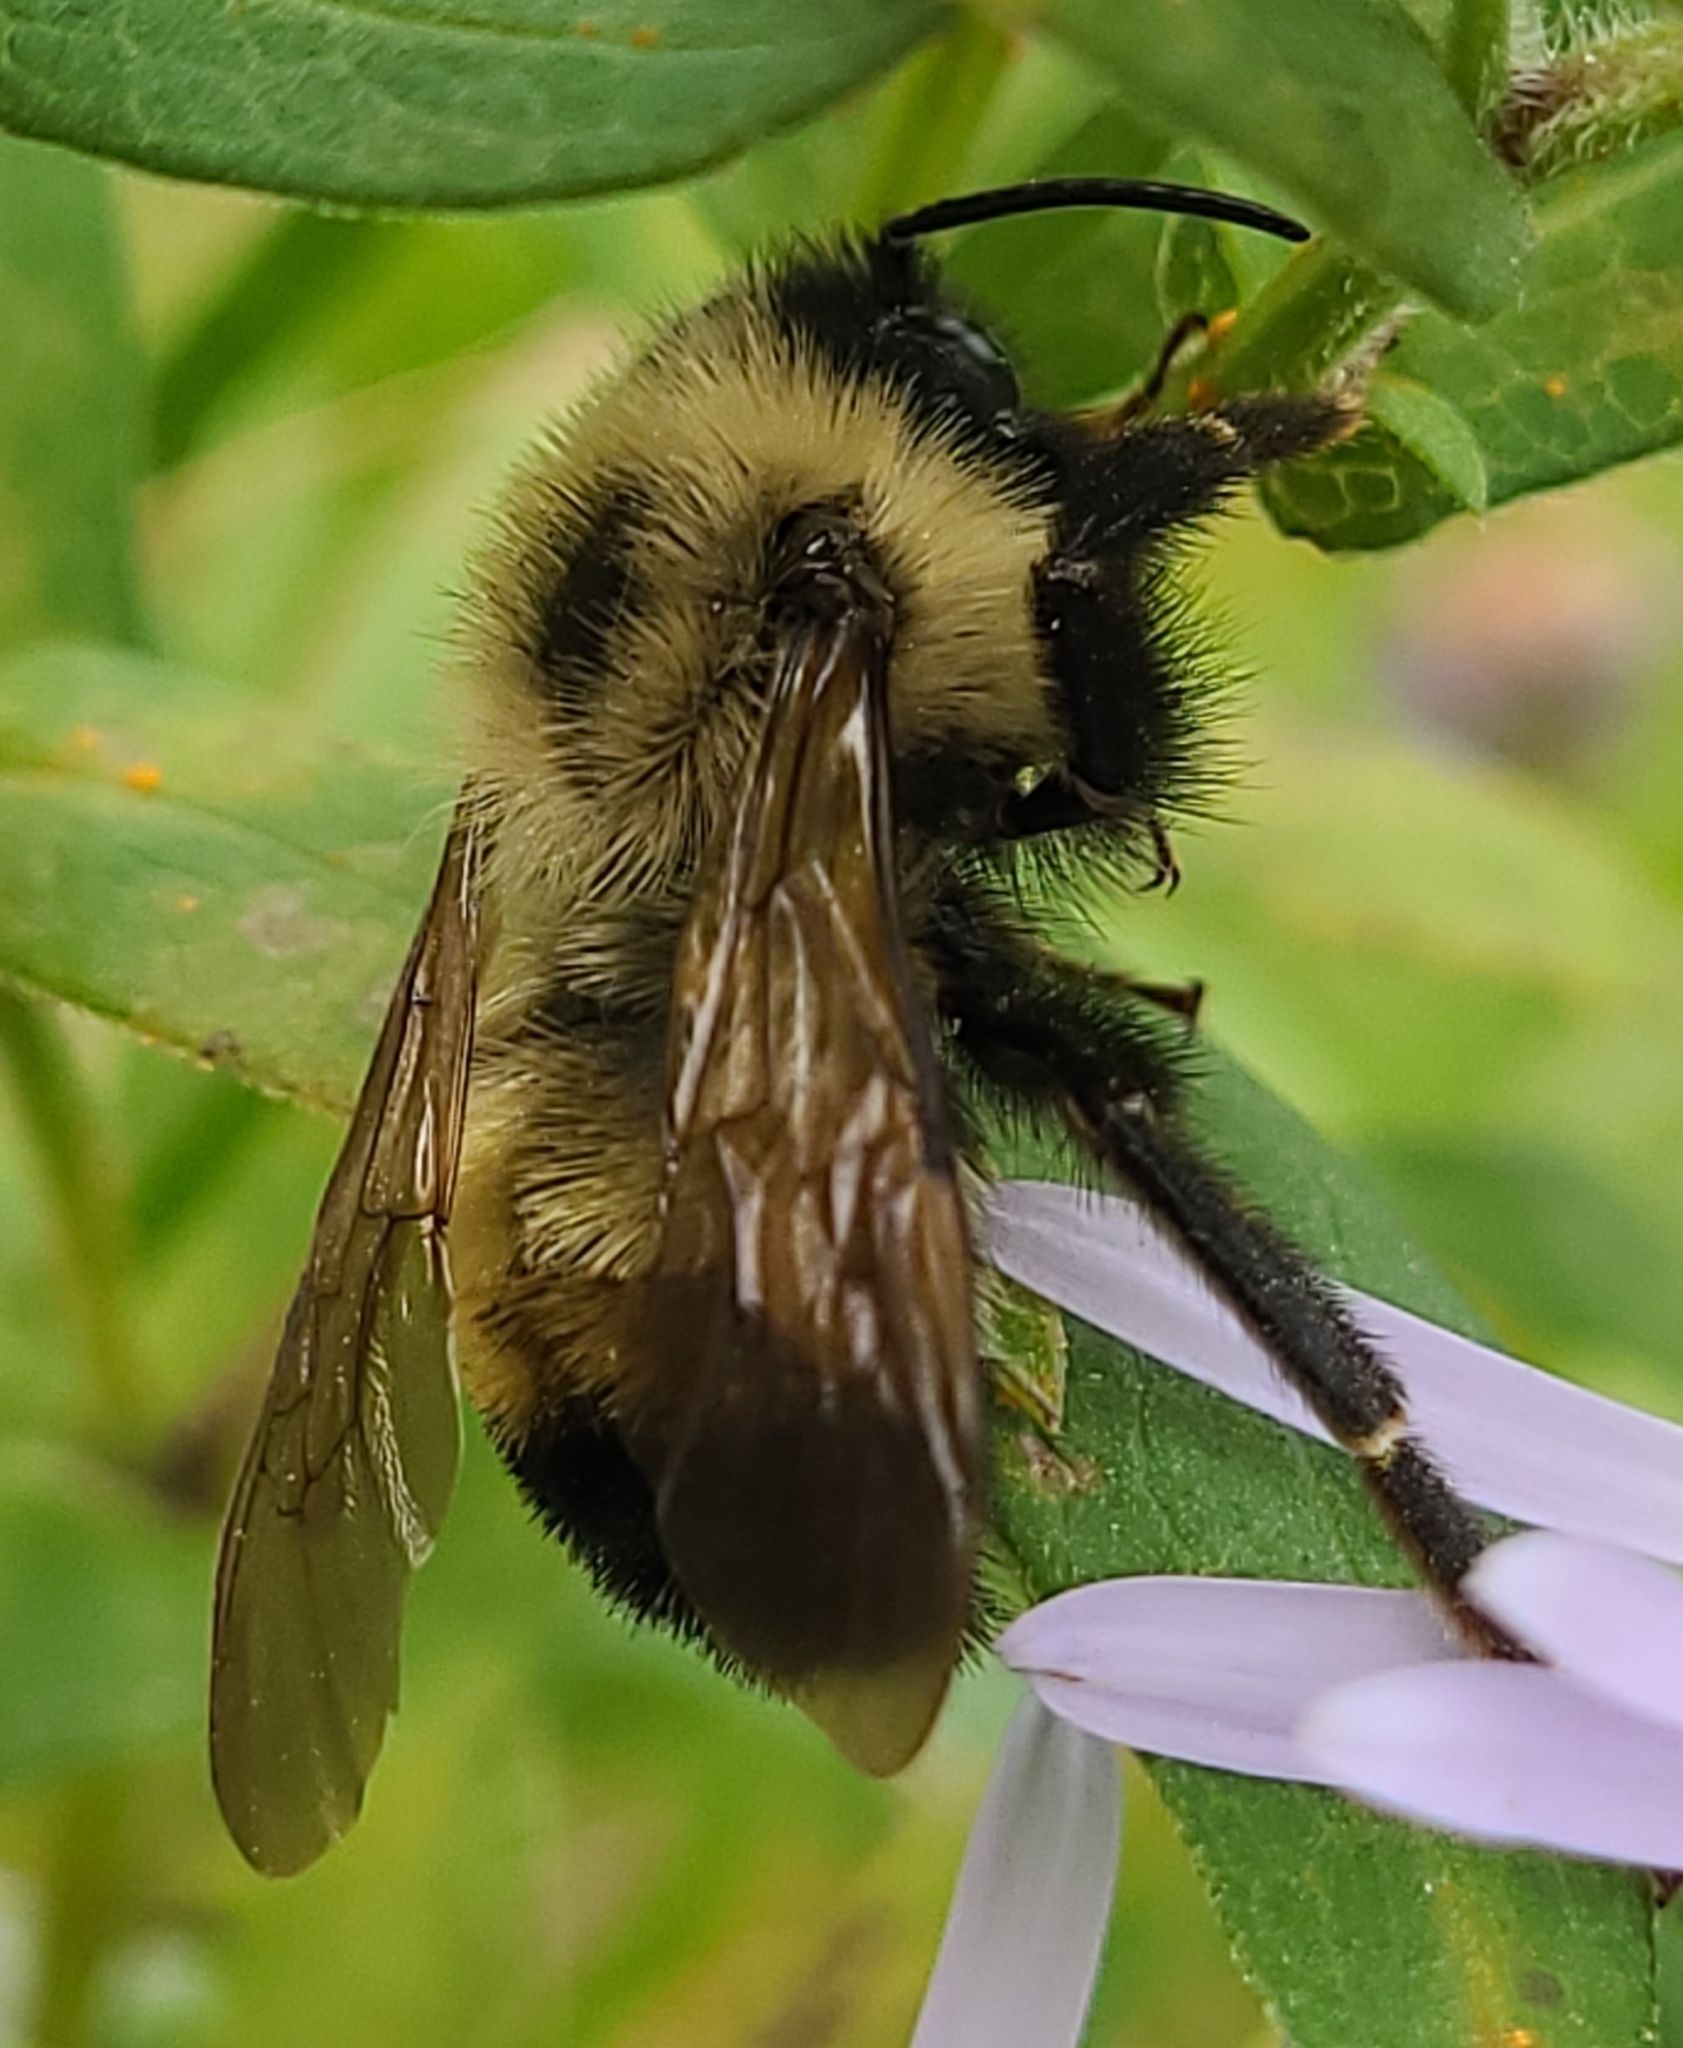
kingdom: Animalia
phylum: Arthropoda
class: Insecta
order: Hymenoptera
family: Apidae
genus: Bombus
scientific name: Bombus citrinus
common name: Lemon cuckoo bumble bee
